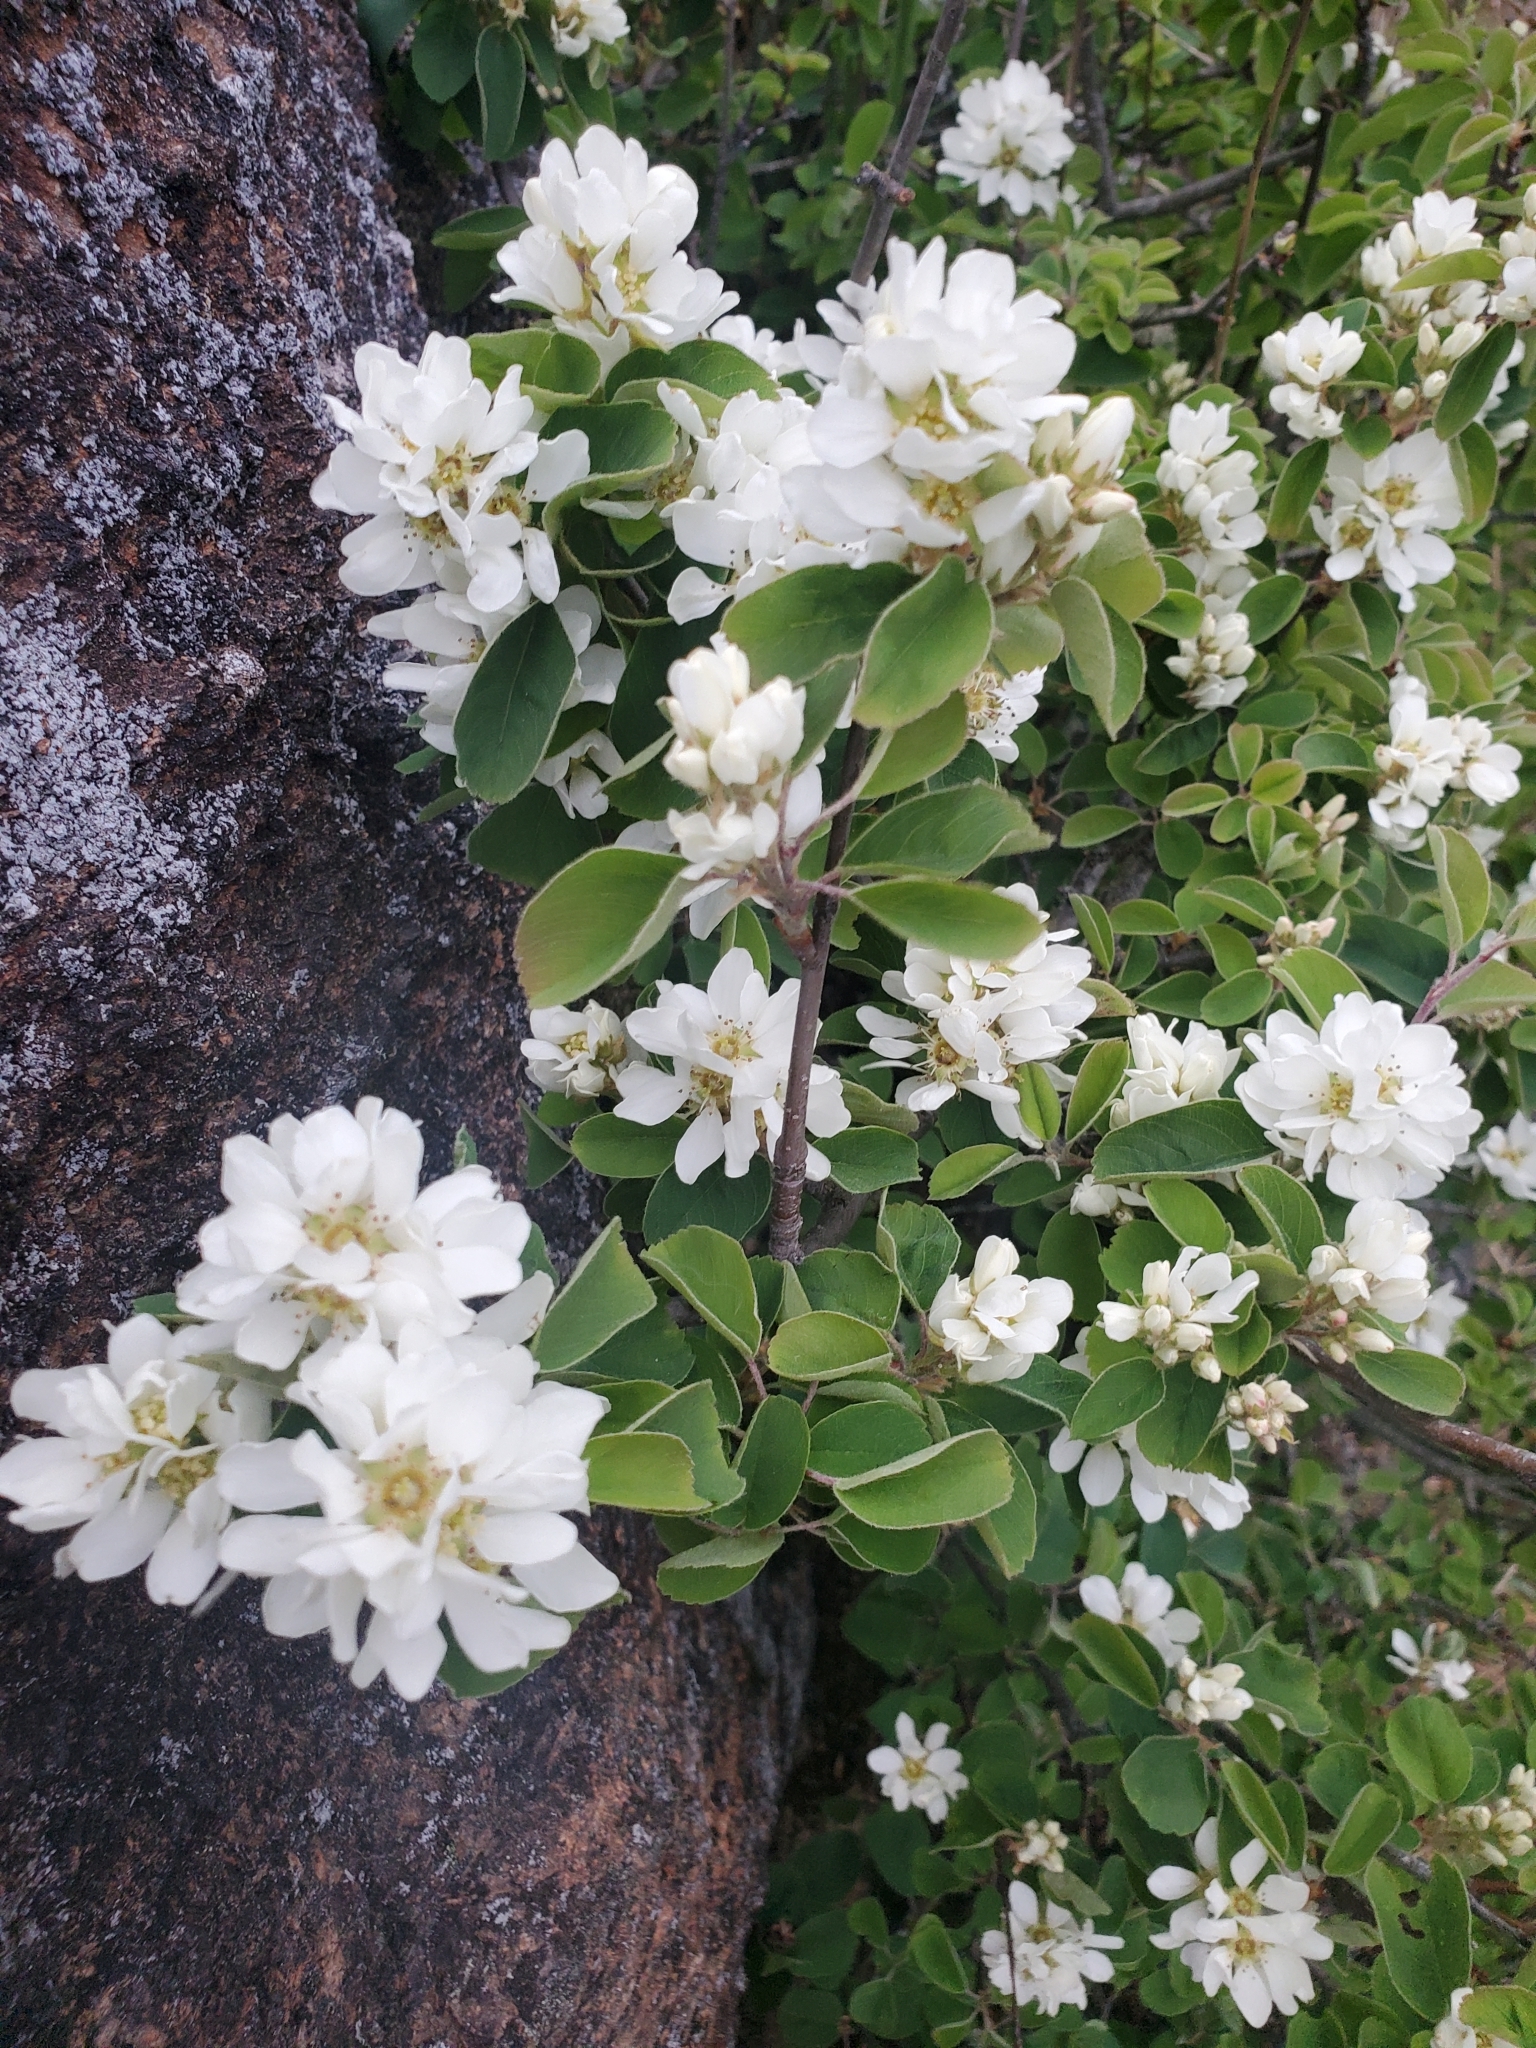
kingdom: Plantae
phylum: Tracheophyta
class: Magnoliopsida
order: Rosales
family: Rosaceae
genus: Amelanchier
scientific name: Amelanchier alnifolia
